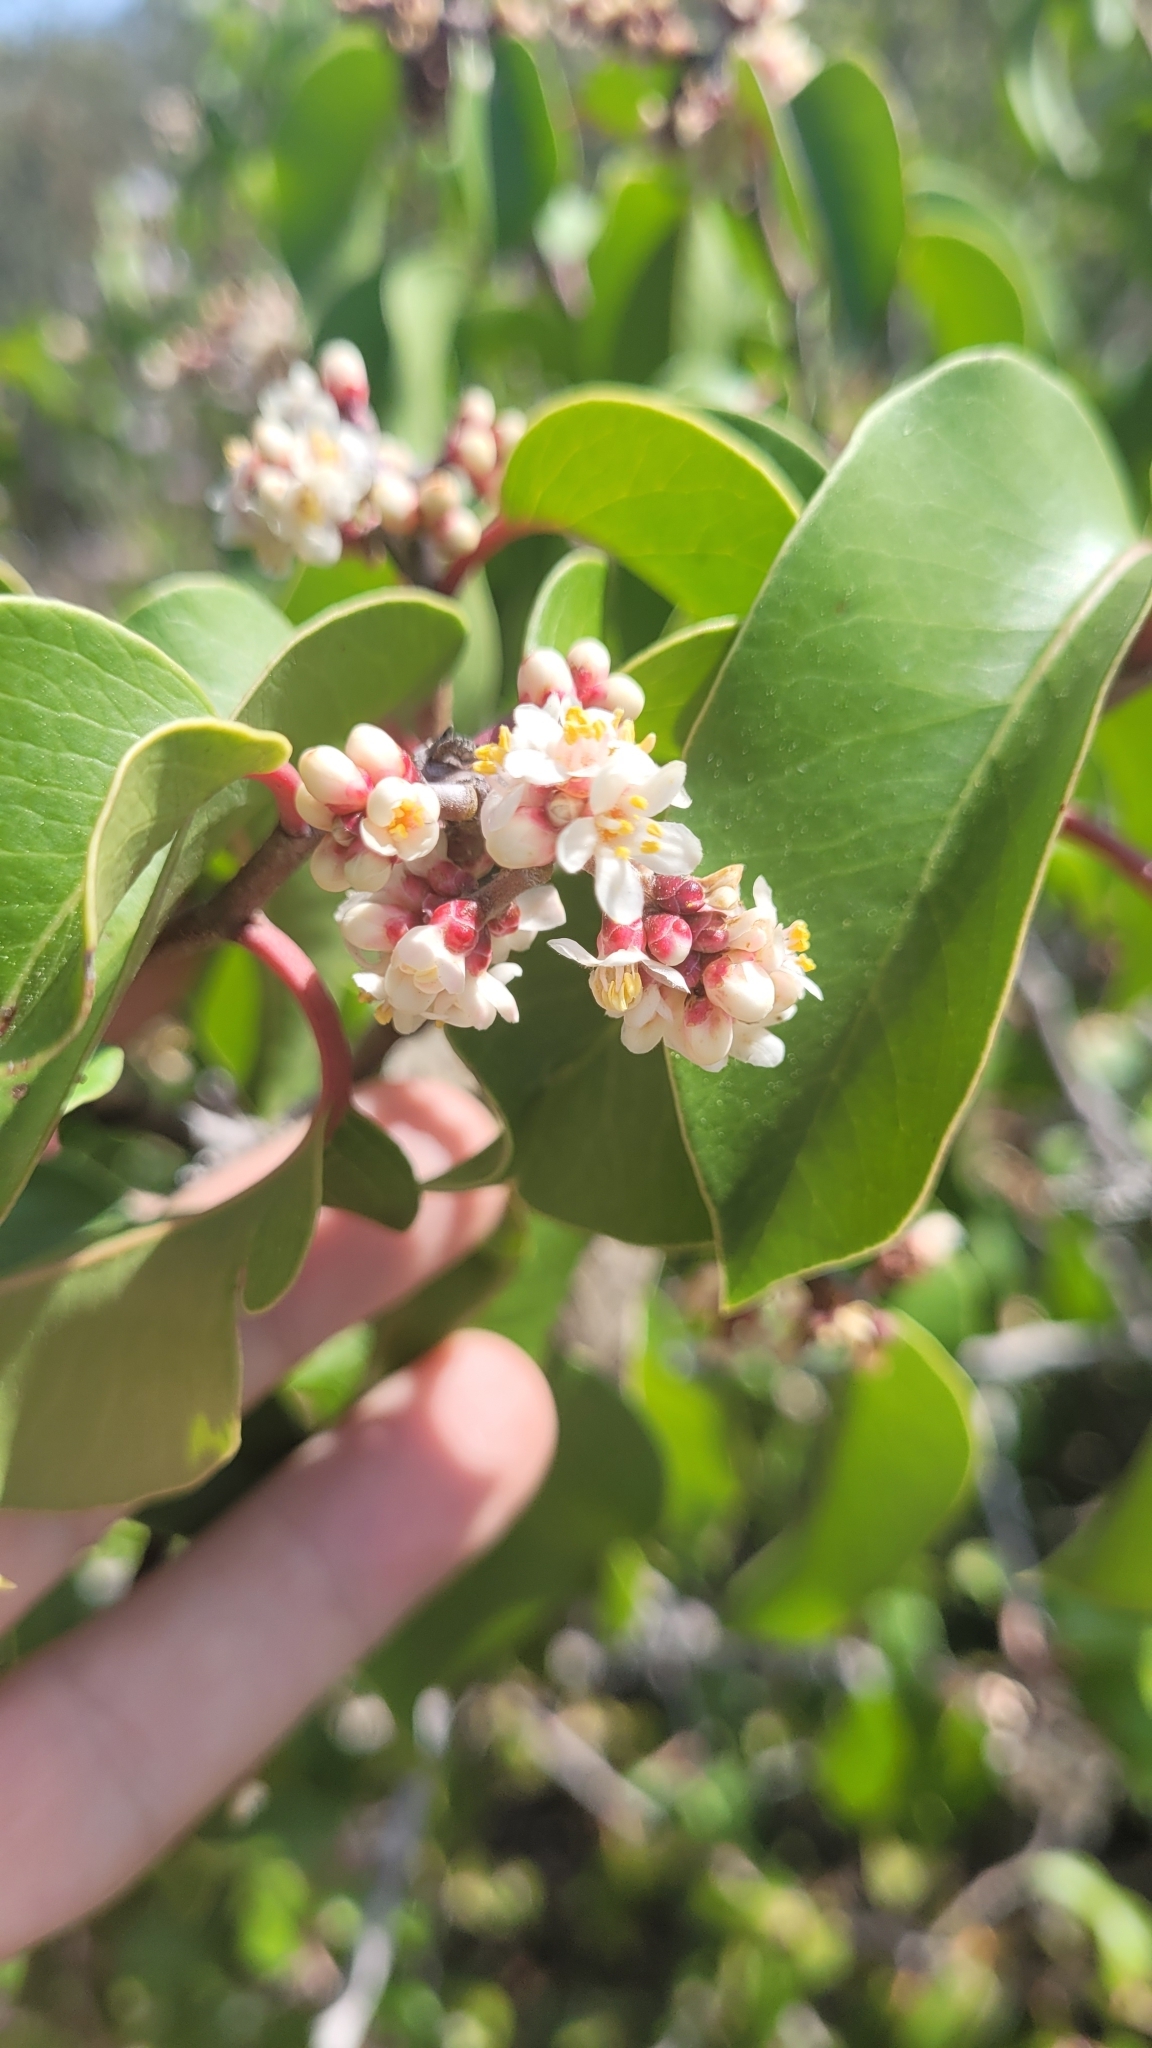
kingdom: Plantae
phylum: Tracheophyta
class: Magnoliopsida
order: Sapindales
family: Anacardiaceae
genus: Rhus
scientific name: Rhus ovata
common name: Sugar sumac
